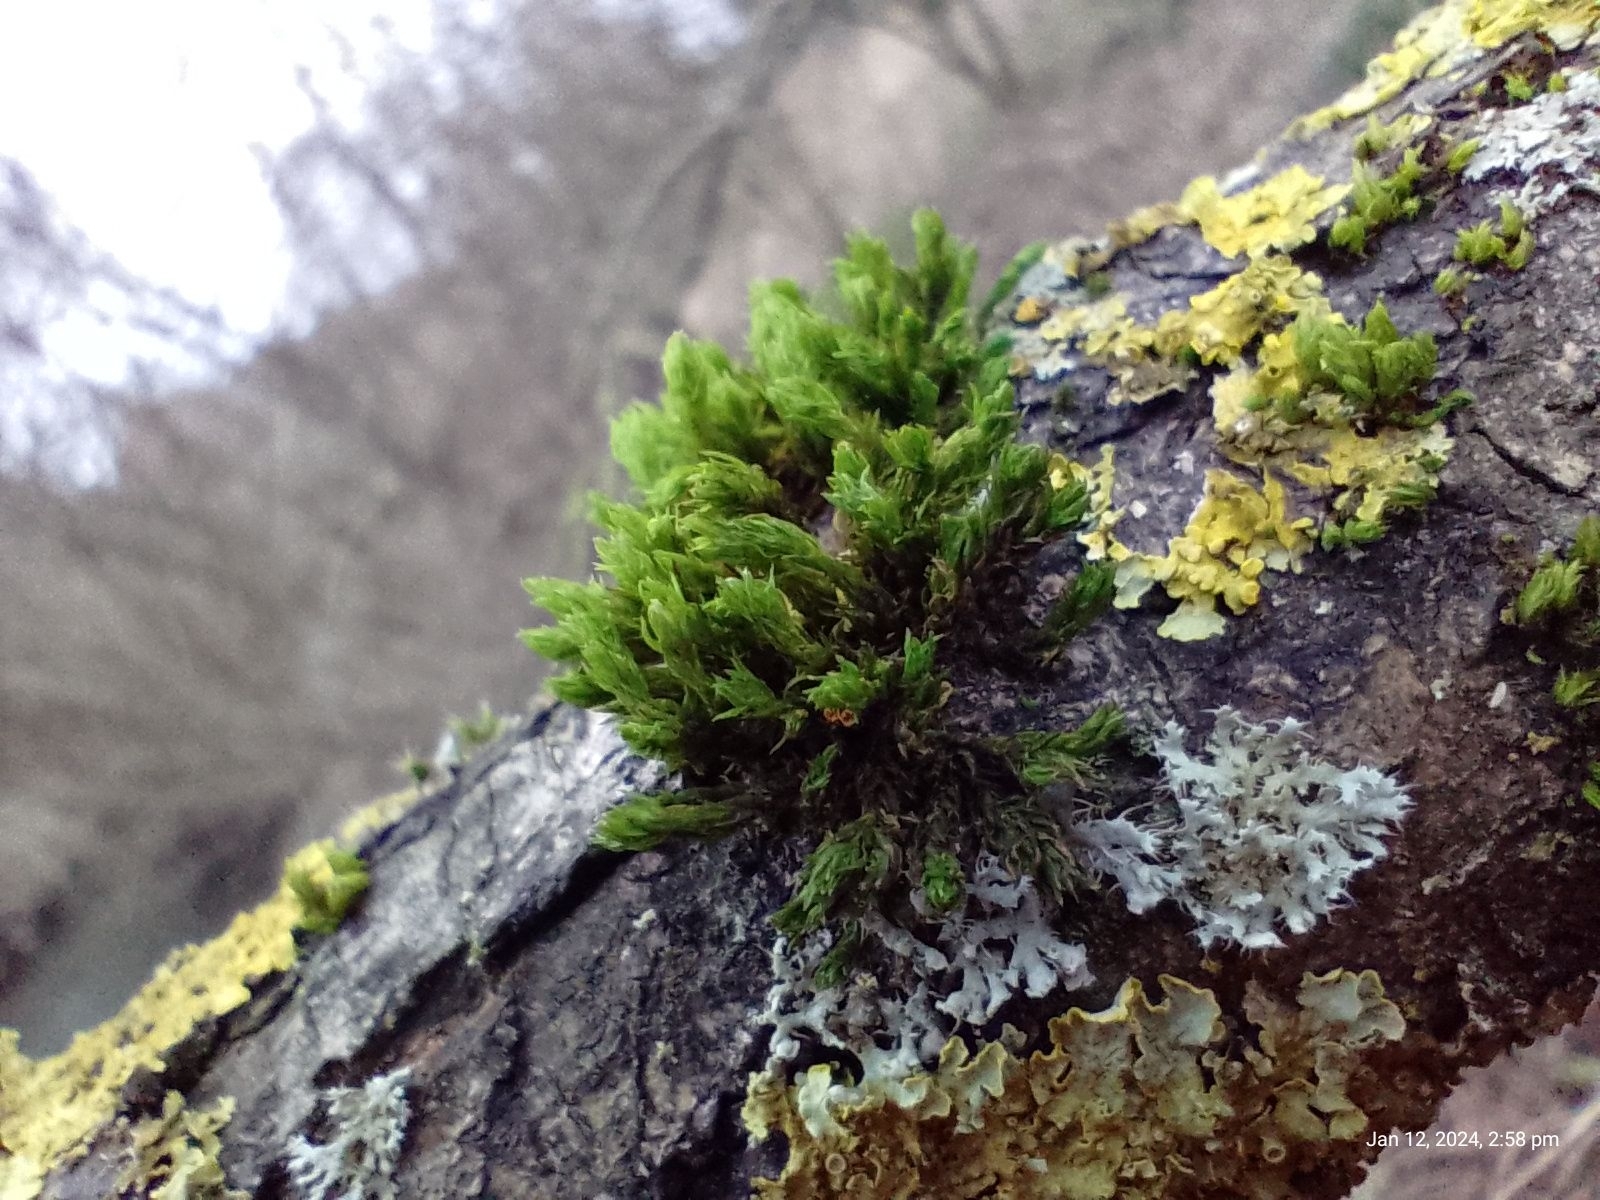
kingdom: Plantae
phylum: Bryophyta
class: Bryopsida
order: Orthotrichales
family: Orthotrichaceae
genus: Lewinskya
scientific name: Lewinskya affinis
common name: Wood bristle-moss
